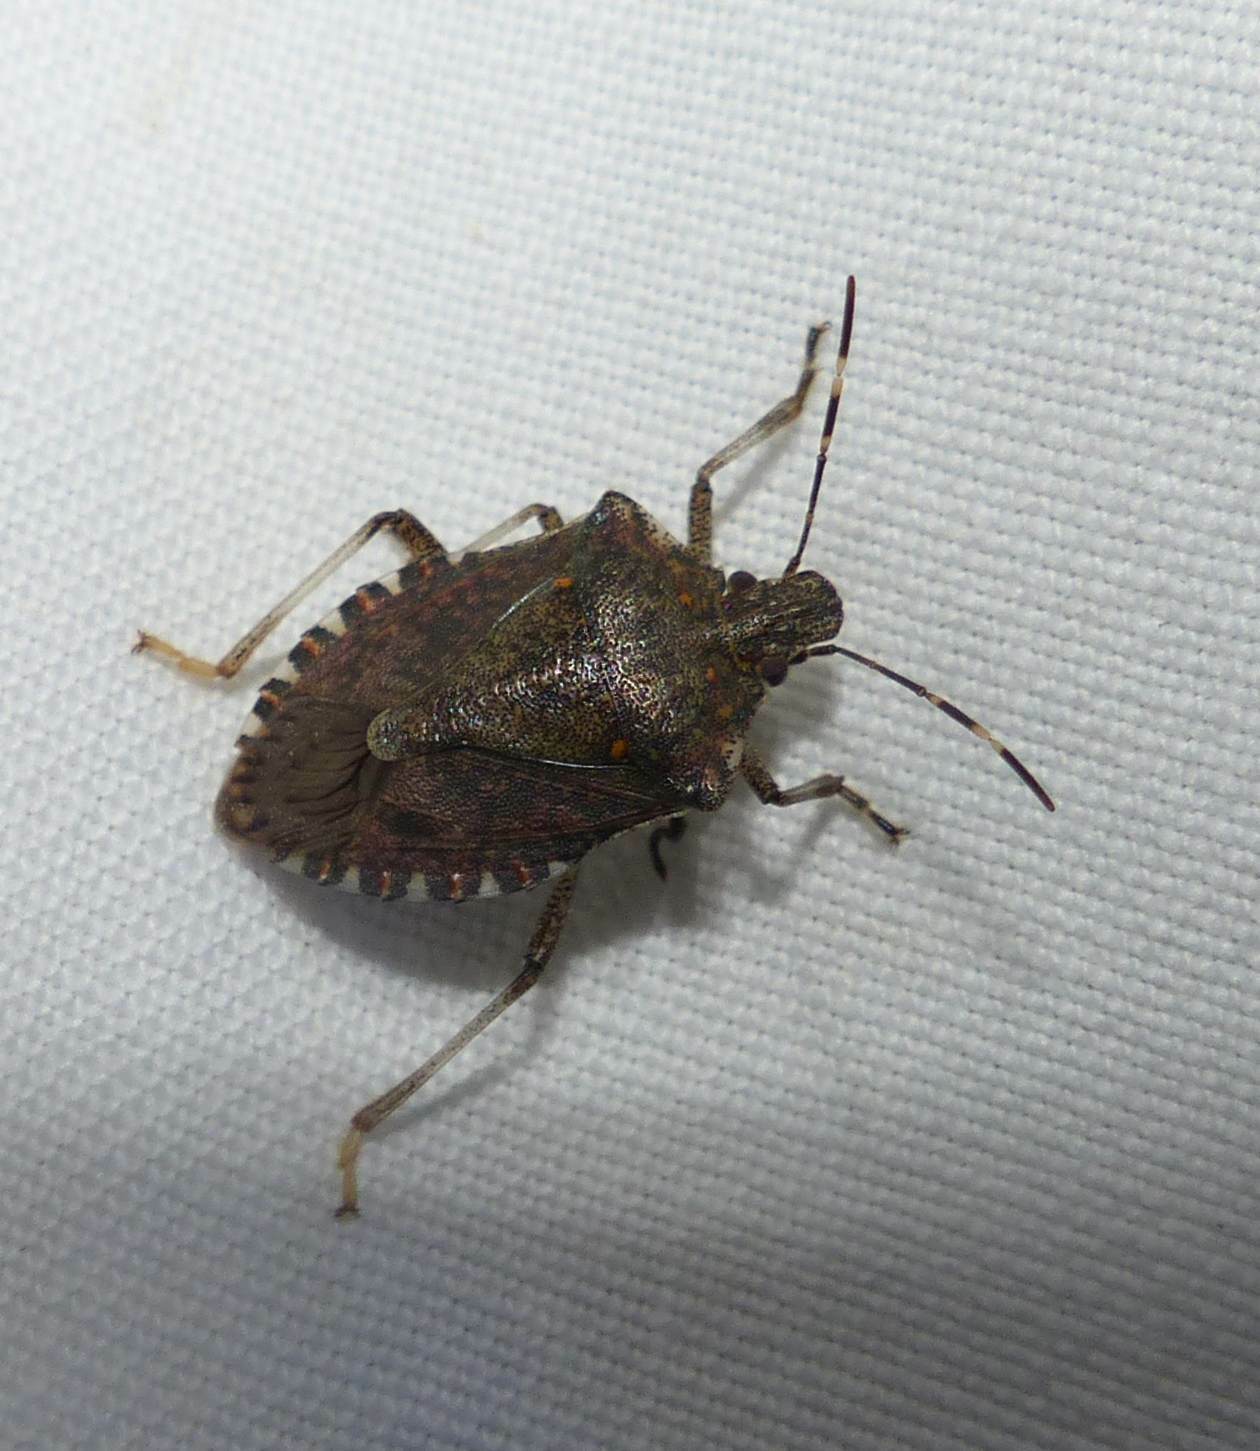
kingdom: Animalia
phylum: Arthropoda
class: Insecta
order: Hemiptera
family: Pentatomidae
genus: Halyomorpha
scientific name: Halyomorpha halys
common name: Brown marmorated stink bug
